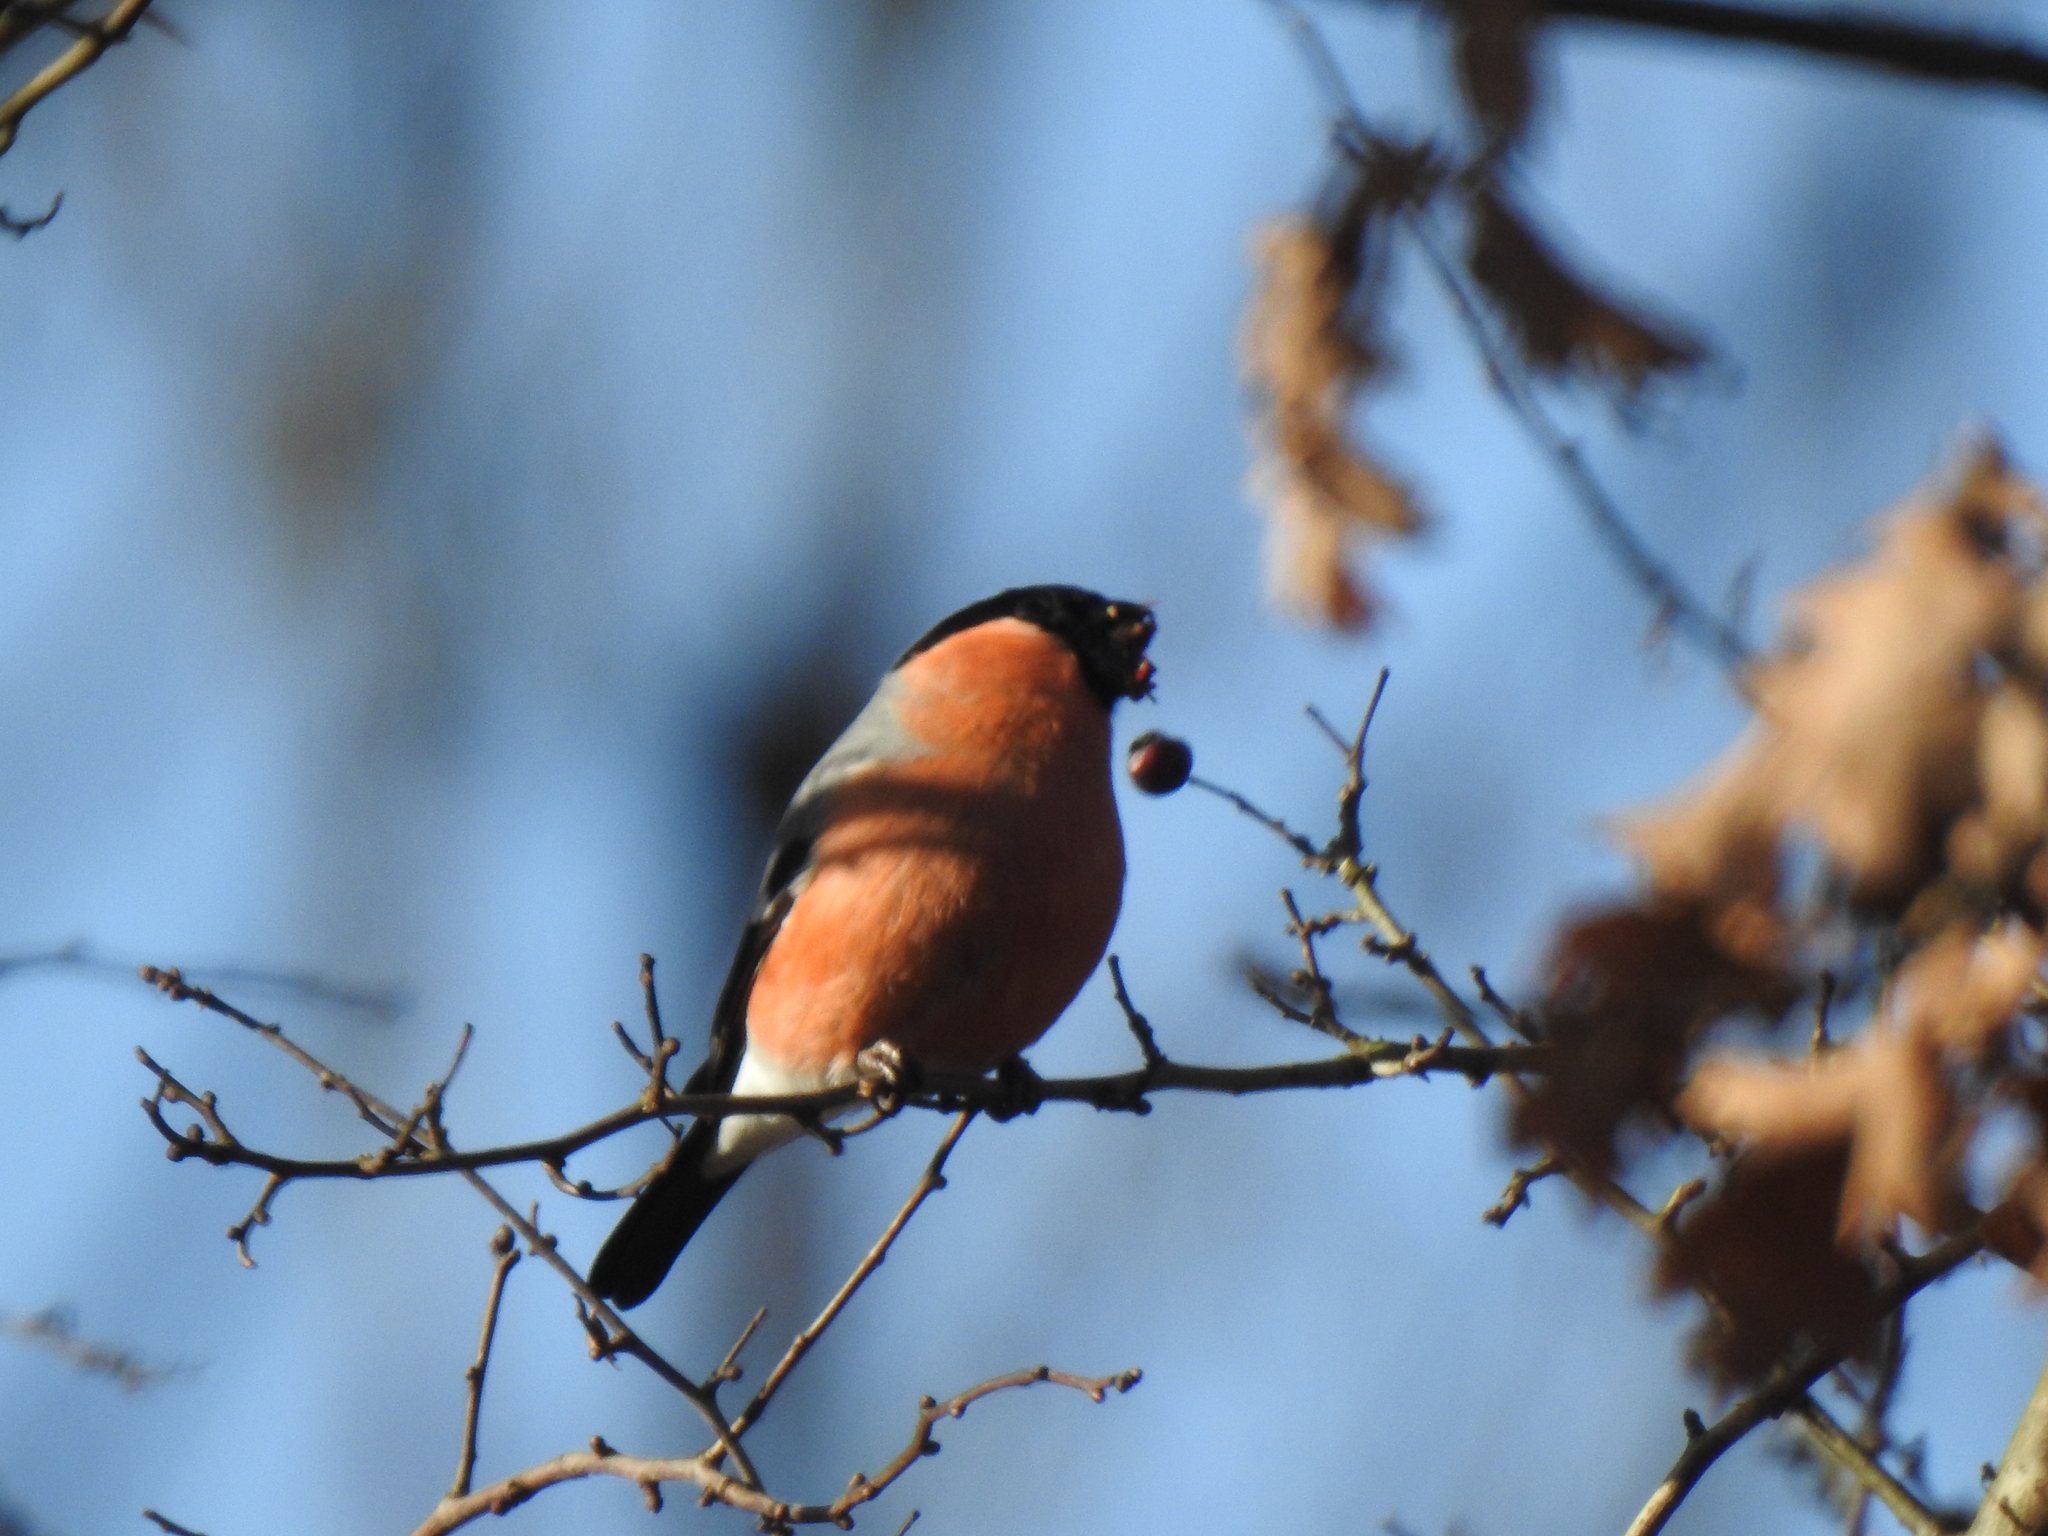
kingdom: Animalia
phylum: Chordata
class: Aves
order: Passeriformes
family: Fringillidae
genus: Pyrrhula
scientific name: Pyrrhula pyrrhula
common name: Eurasian bullfinch
